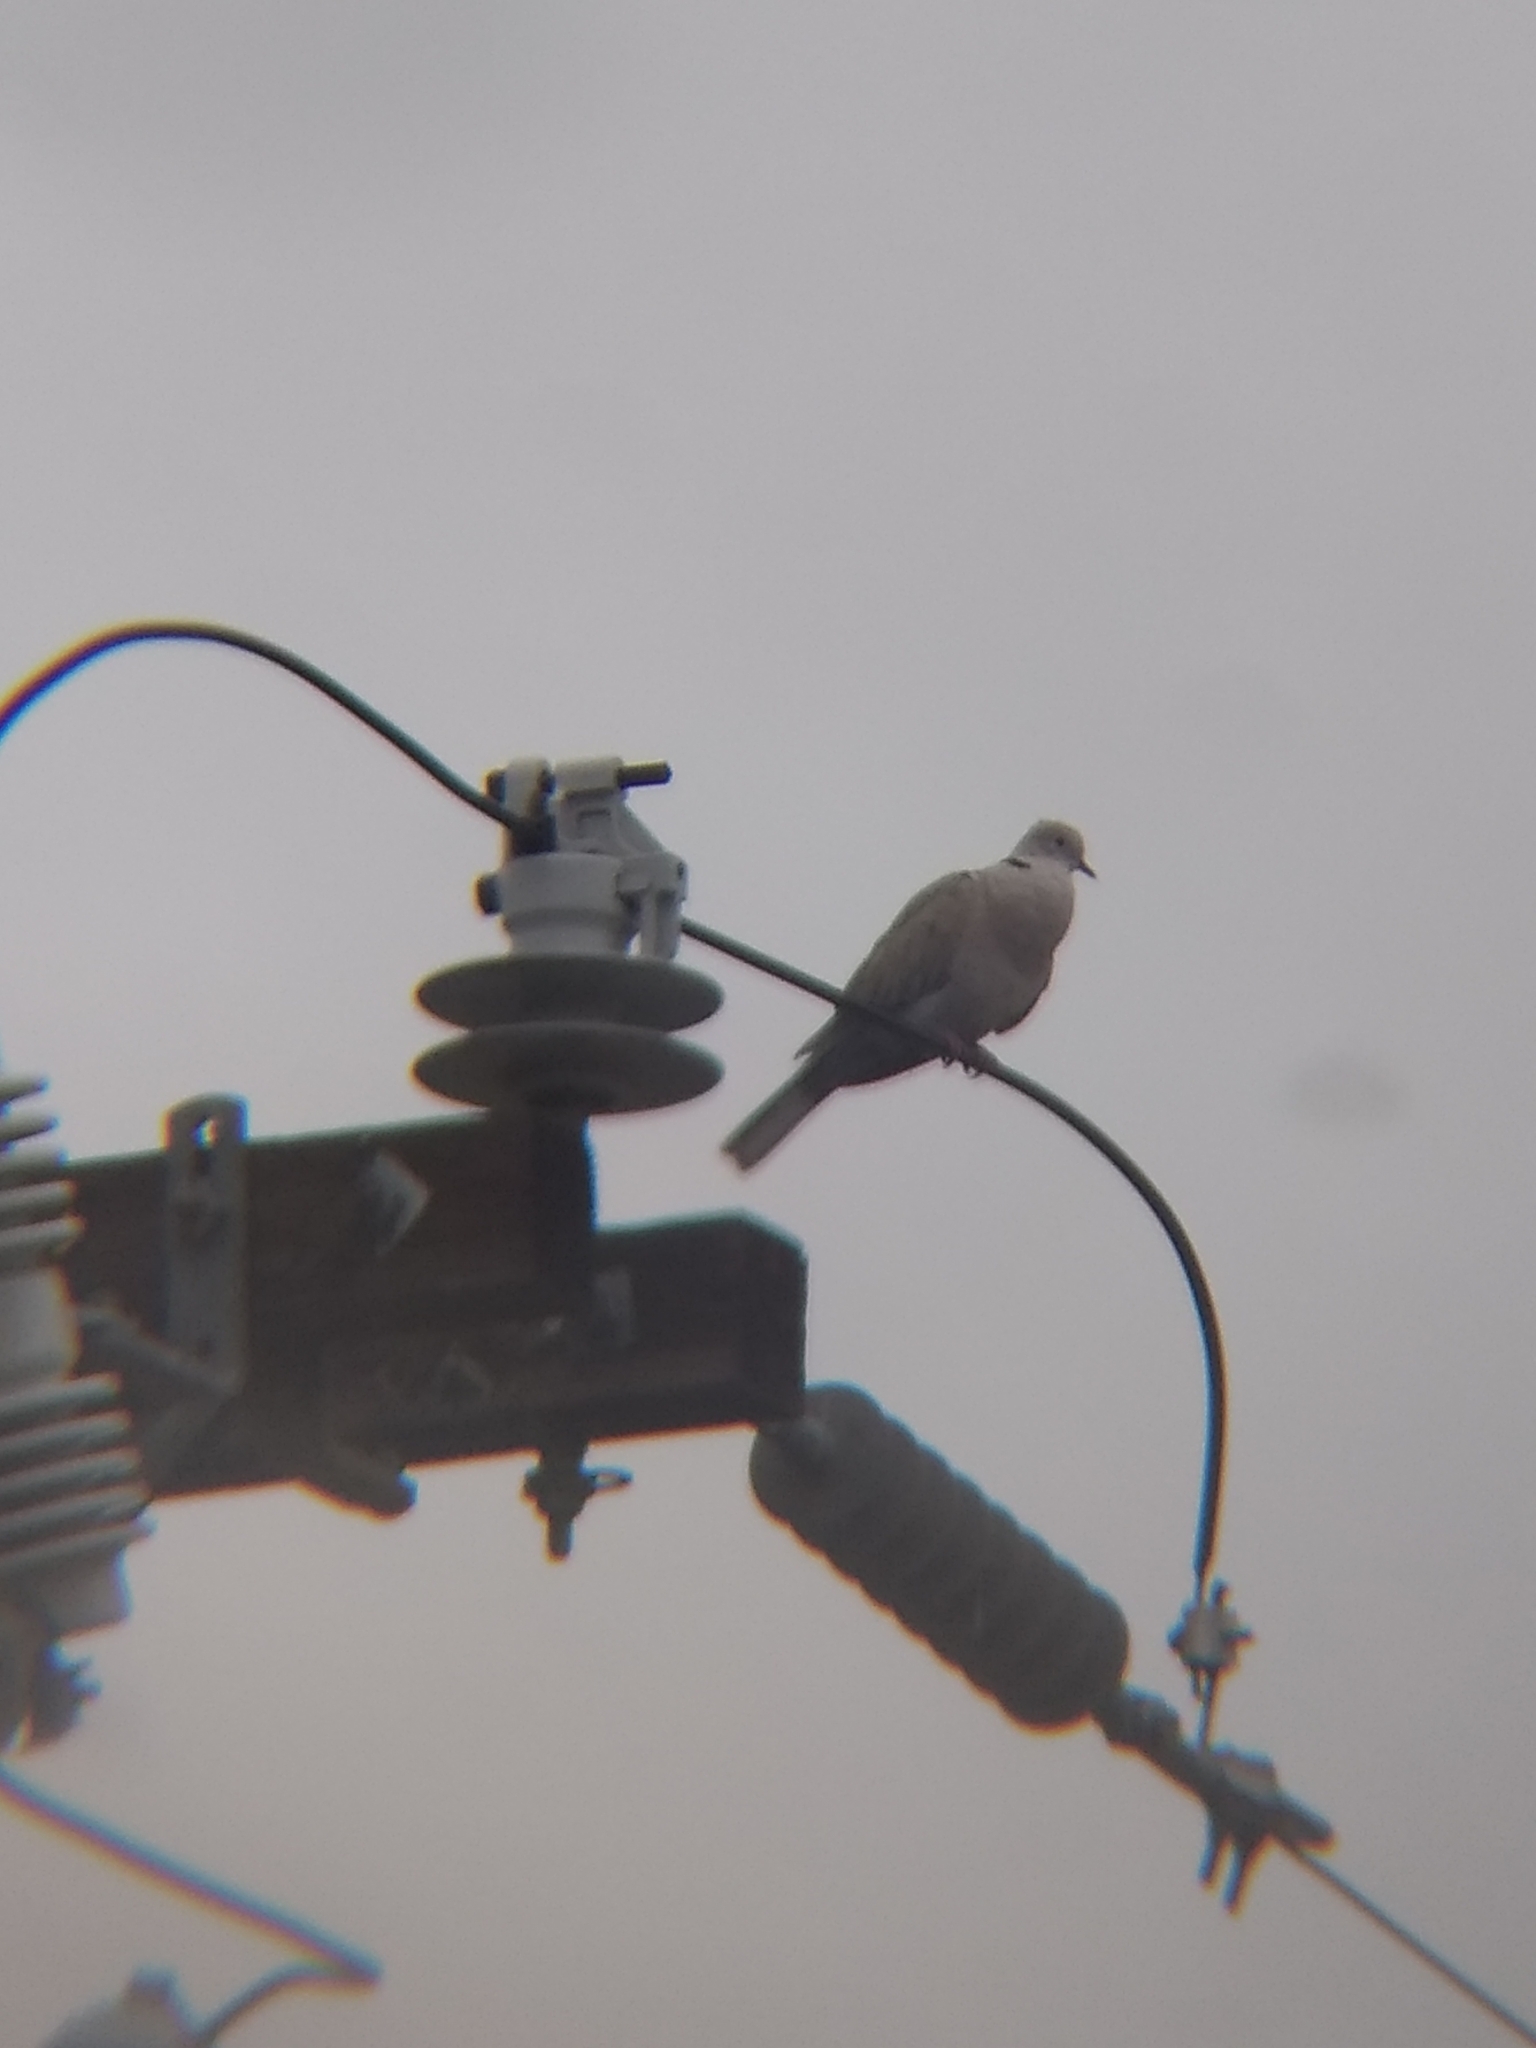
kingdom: Animalia
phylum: Chordata
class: Aves
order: Columbiformes
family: Columbidae
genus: Streptopelia
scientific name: Streptopelia decaocto
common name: Eurasian collared dove
